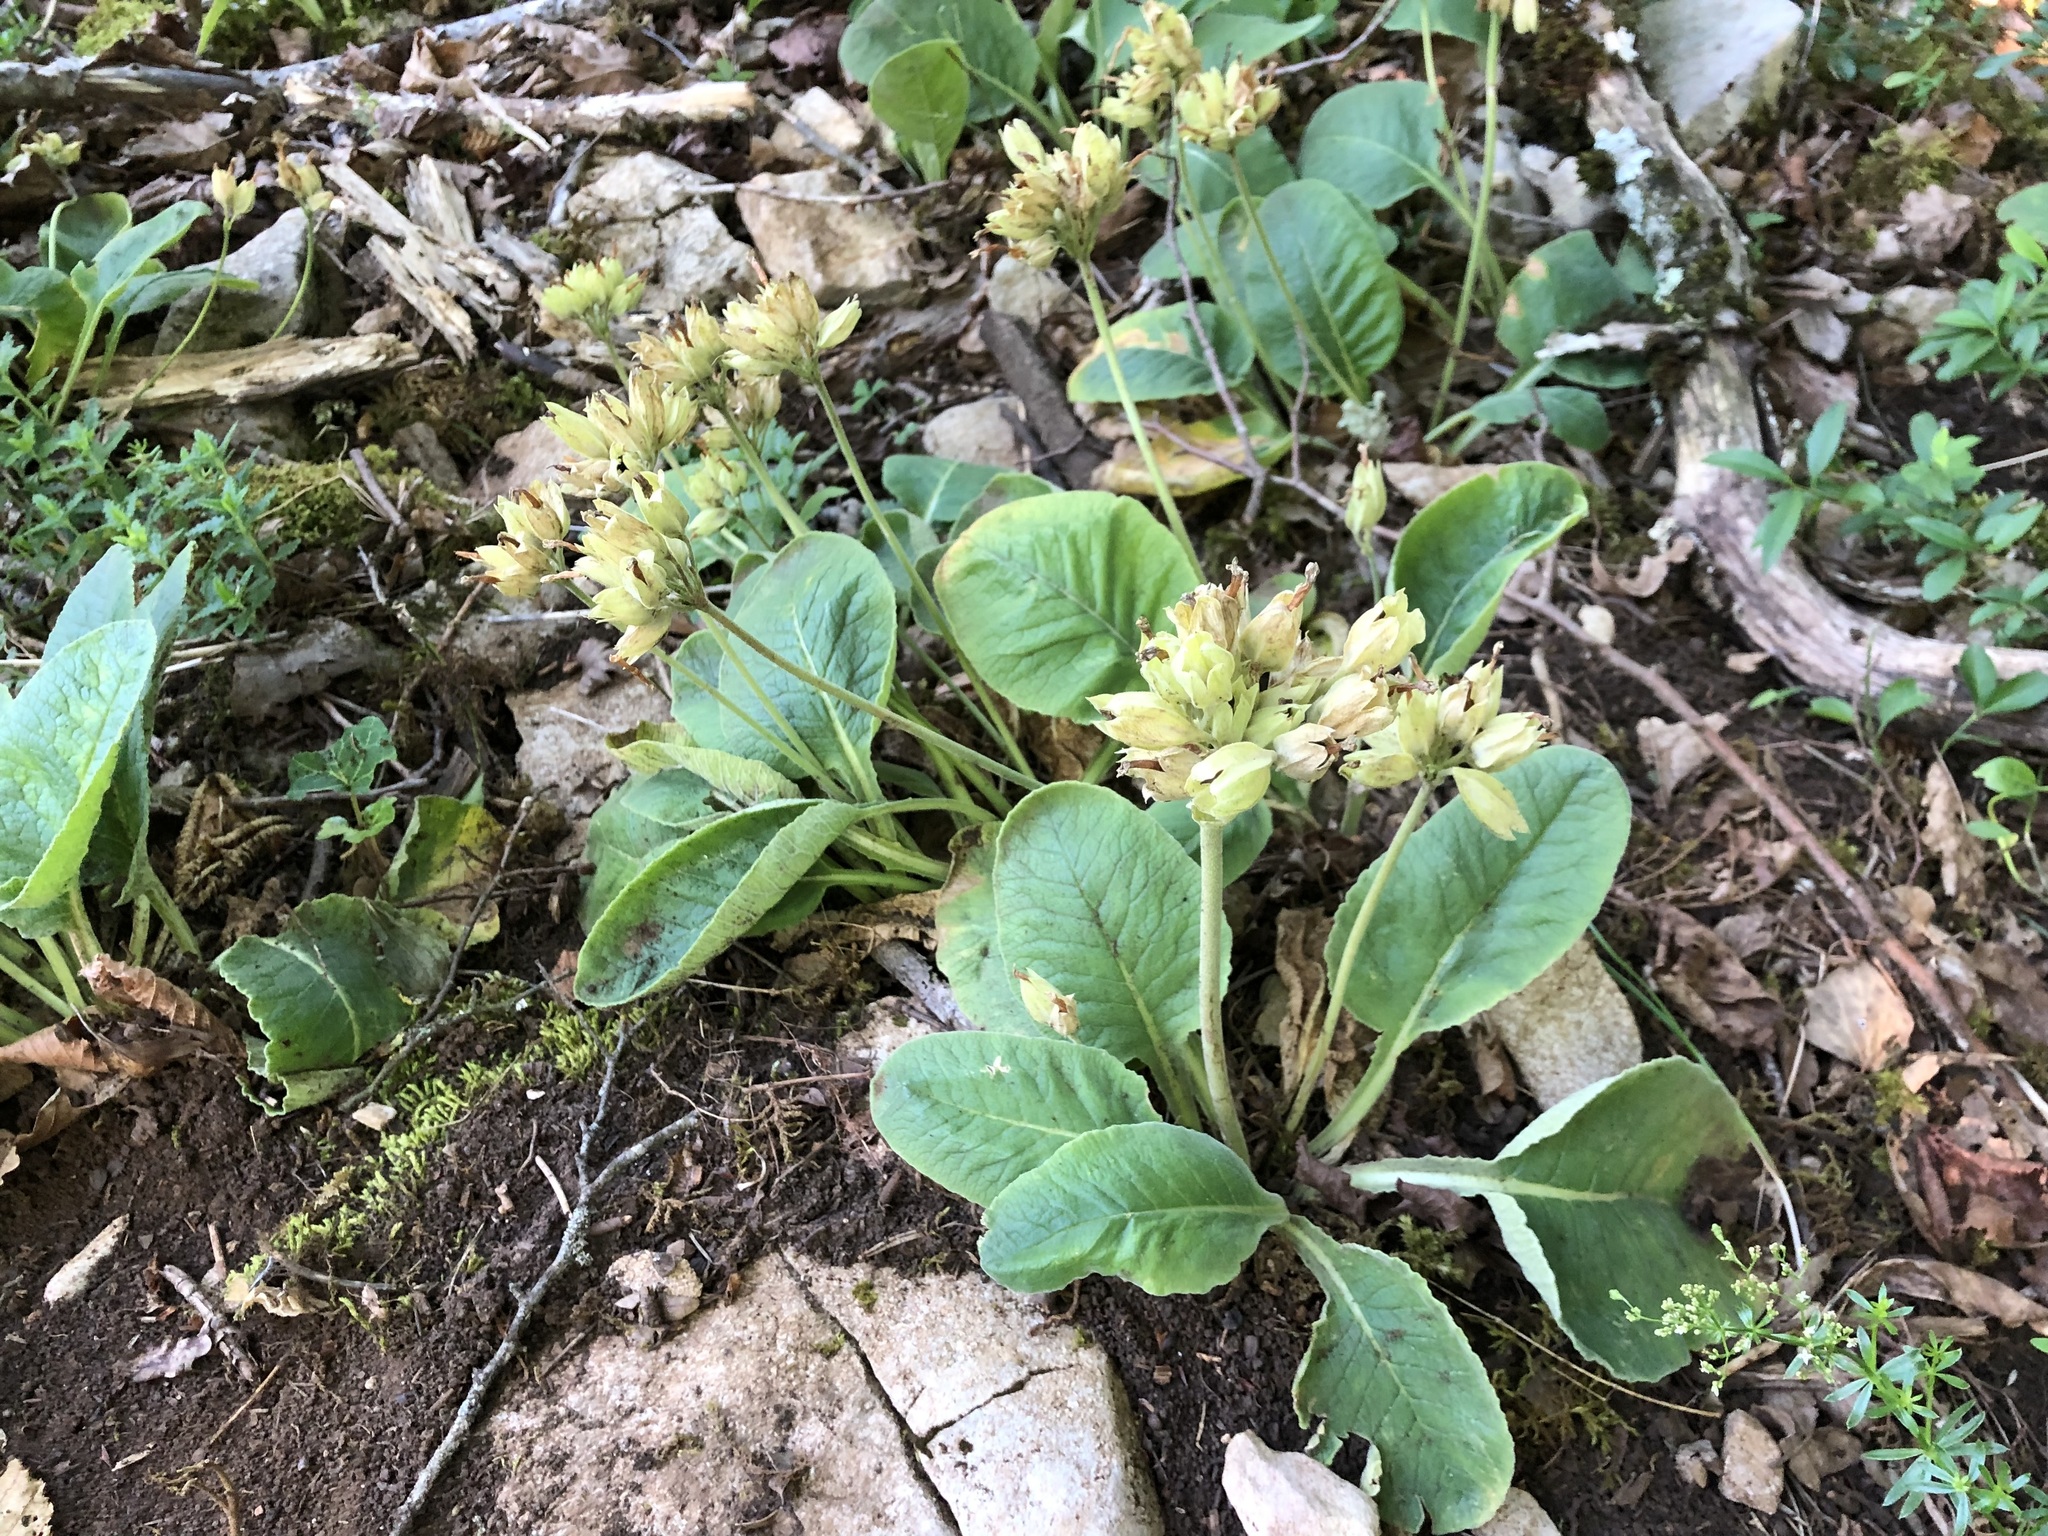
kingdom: Plantae
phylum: Tracheophyta
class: Magnoliopsida
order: Ericales
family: Primulaceae
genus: Primula
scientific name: Primula elatior
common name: Oxlip
